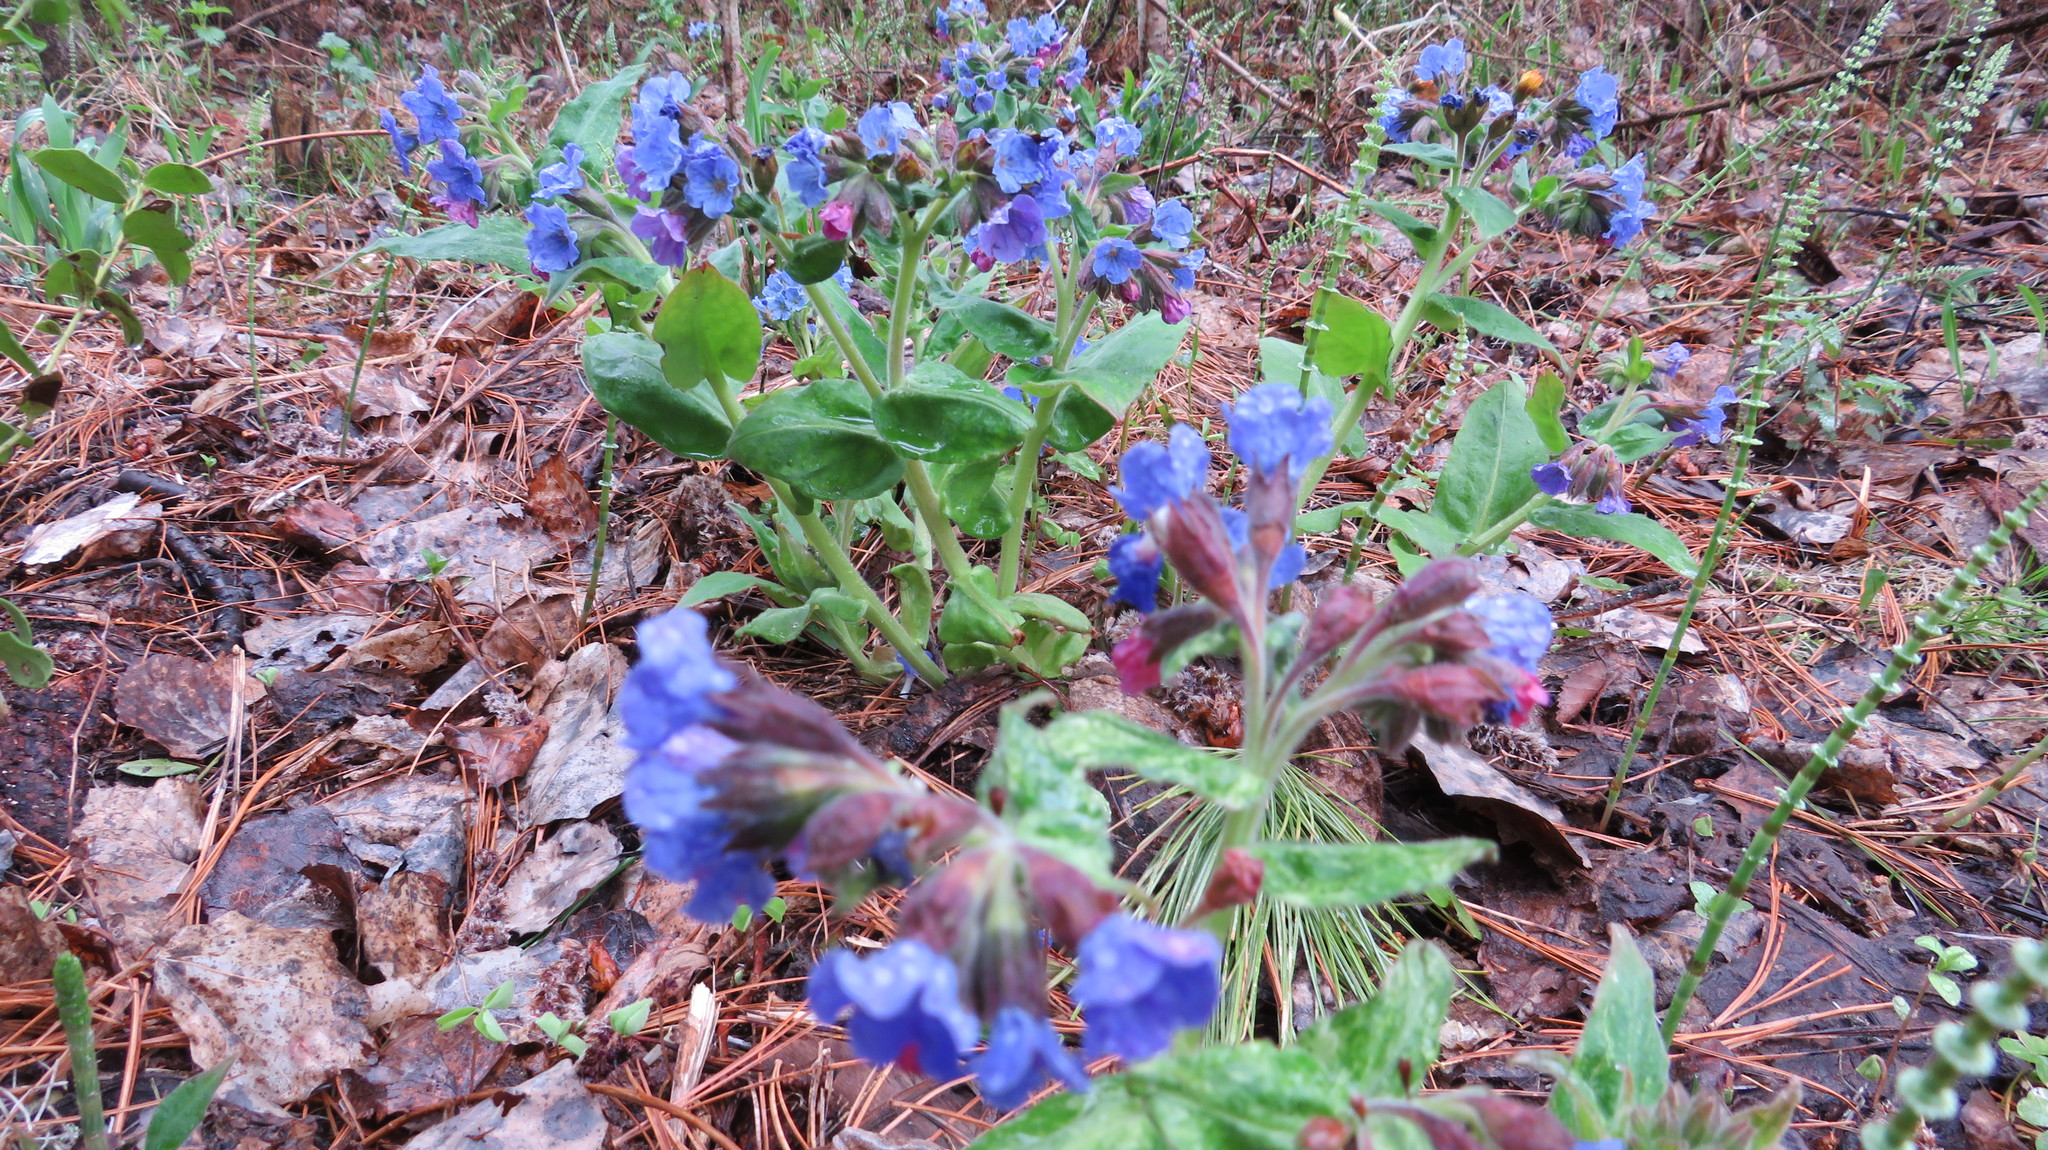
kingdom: Plantae
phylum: Tracheophyta
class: Magnoliopsida
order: Boraginales
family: Boraginaceae
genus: Pulmonaria
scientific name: Pulmonaria mollis
